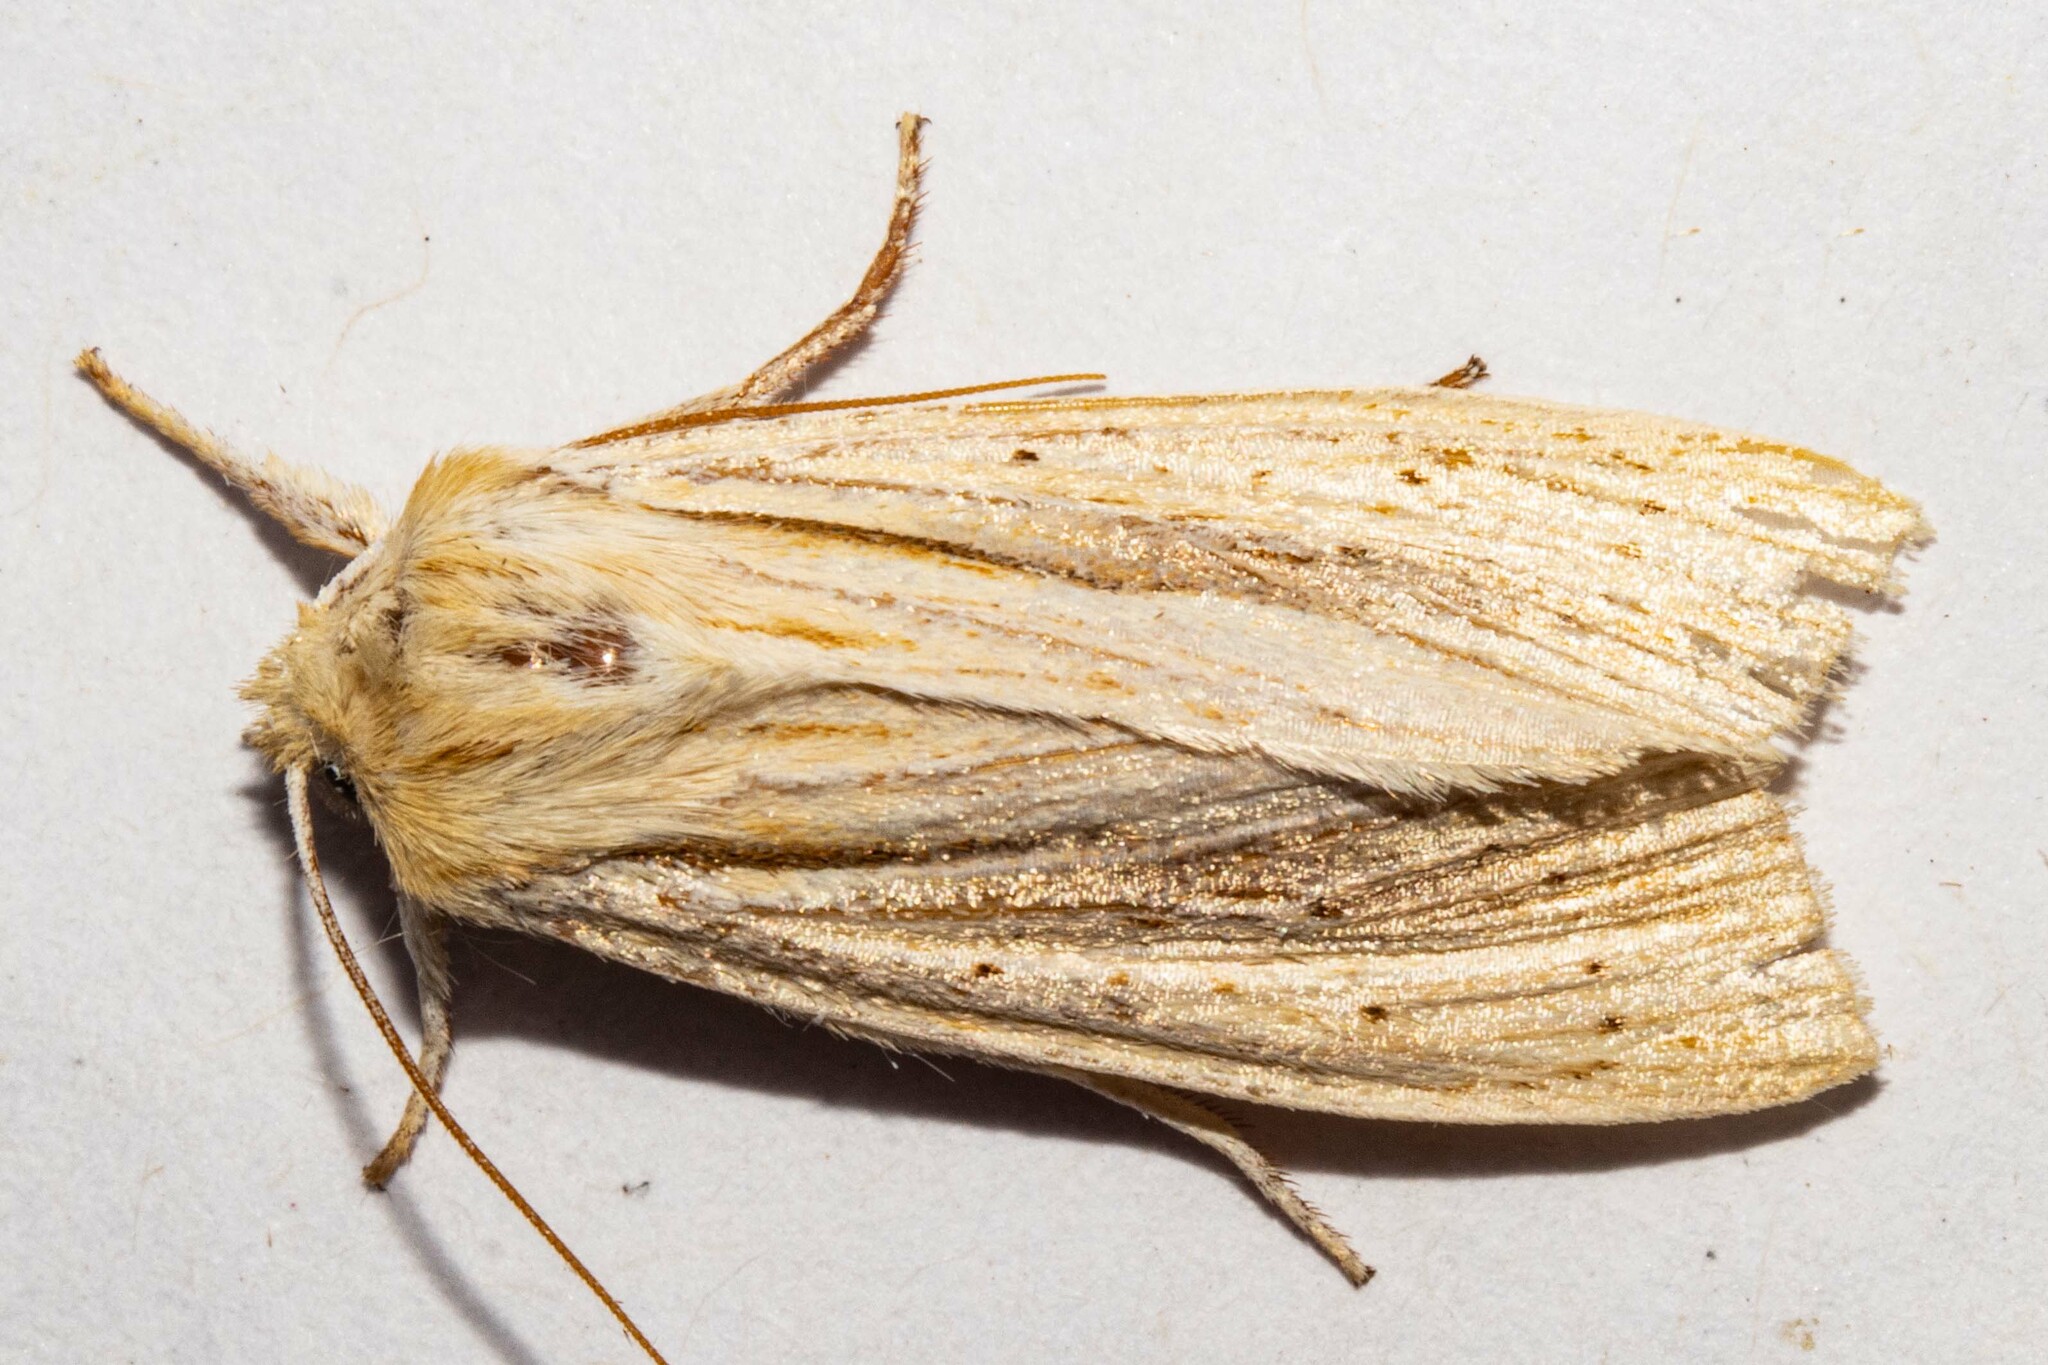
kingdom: Animalia
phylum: Arthropoda
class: Insecta
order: Lepidoptera
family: Noctuidae
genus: Ichneutica
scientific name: Ichneutica semivittata
